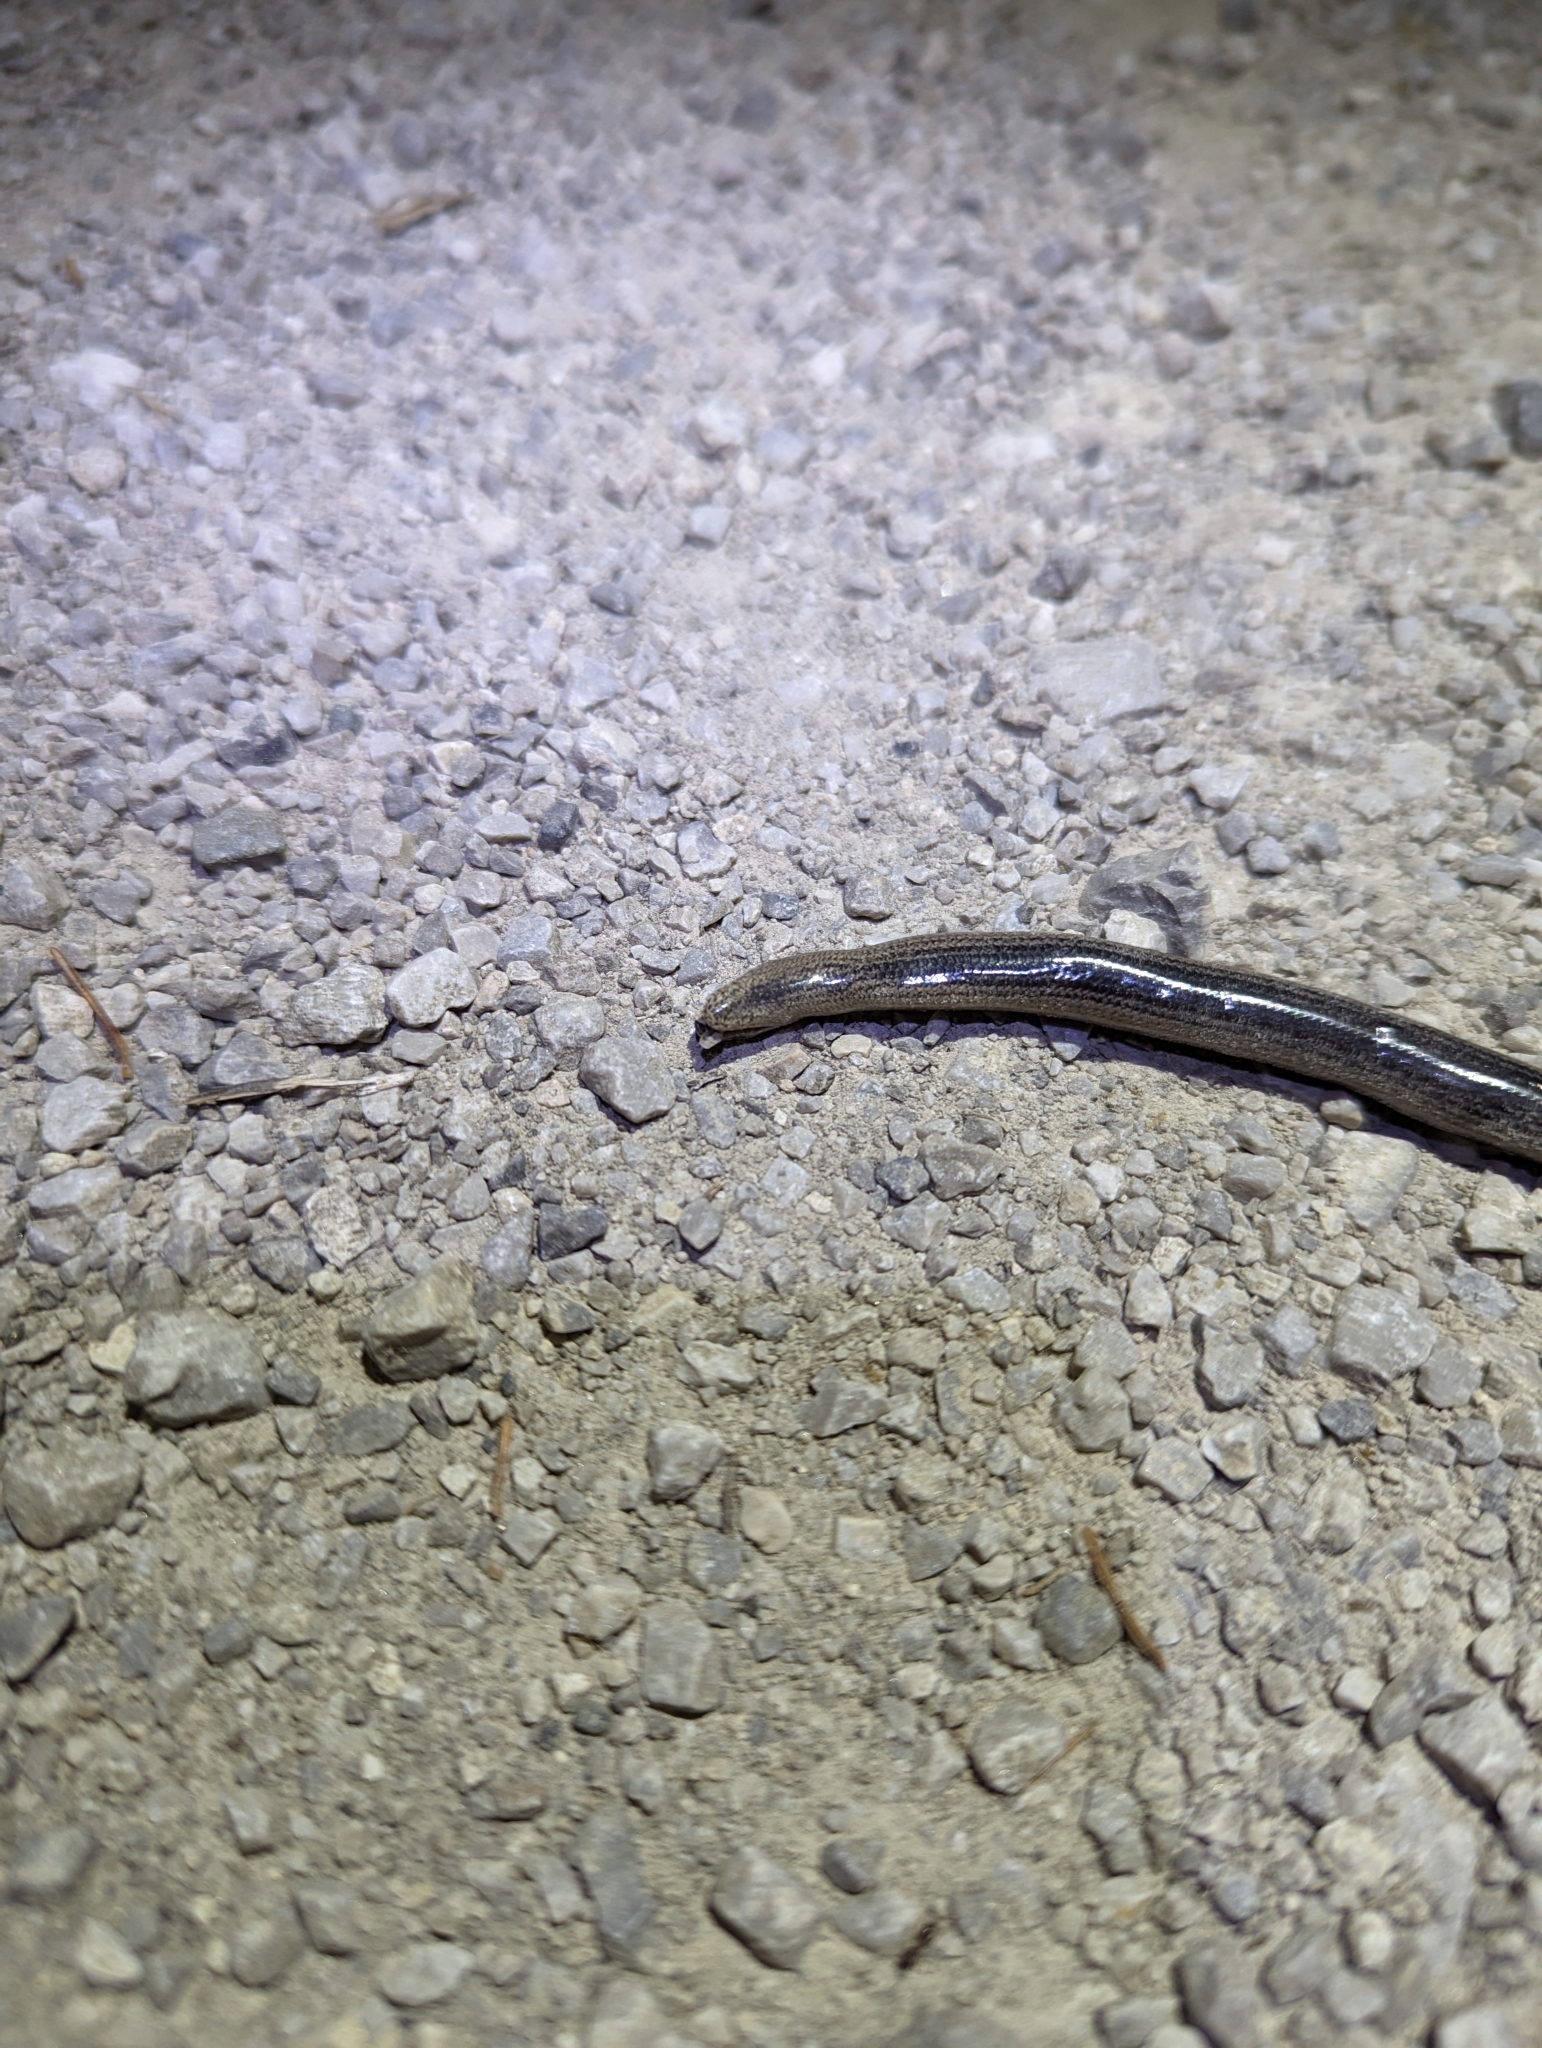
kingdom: Animalia
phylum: Chordata
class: Squamata
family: Anguidae
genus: Anguis
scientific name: Anguis fragilis
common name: Slow worm
